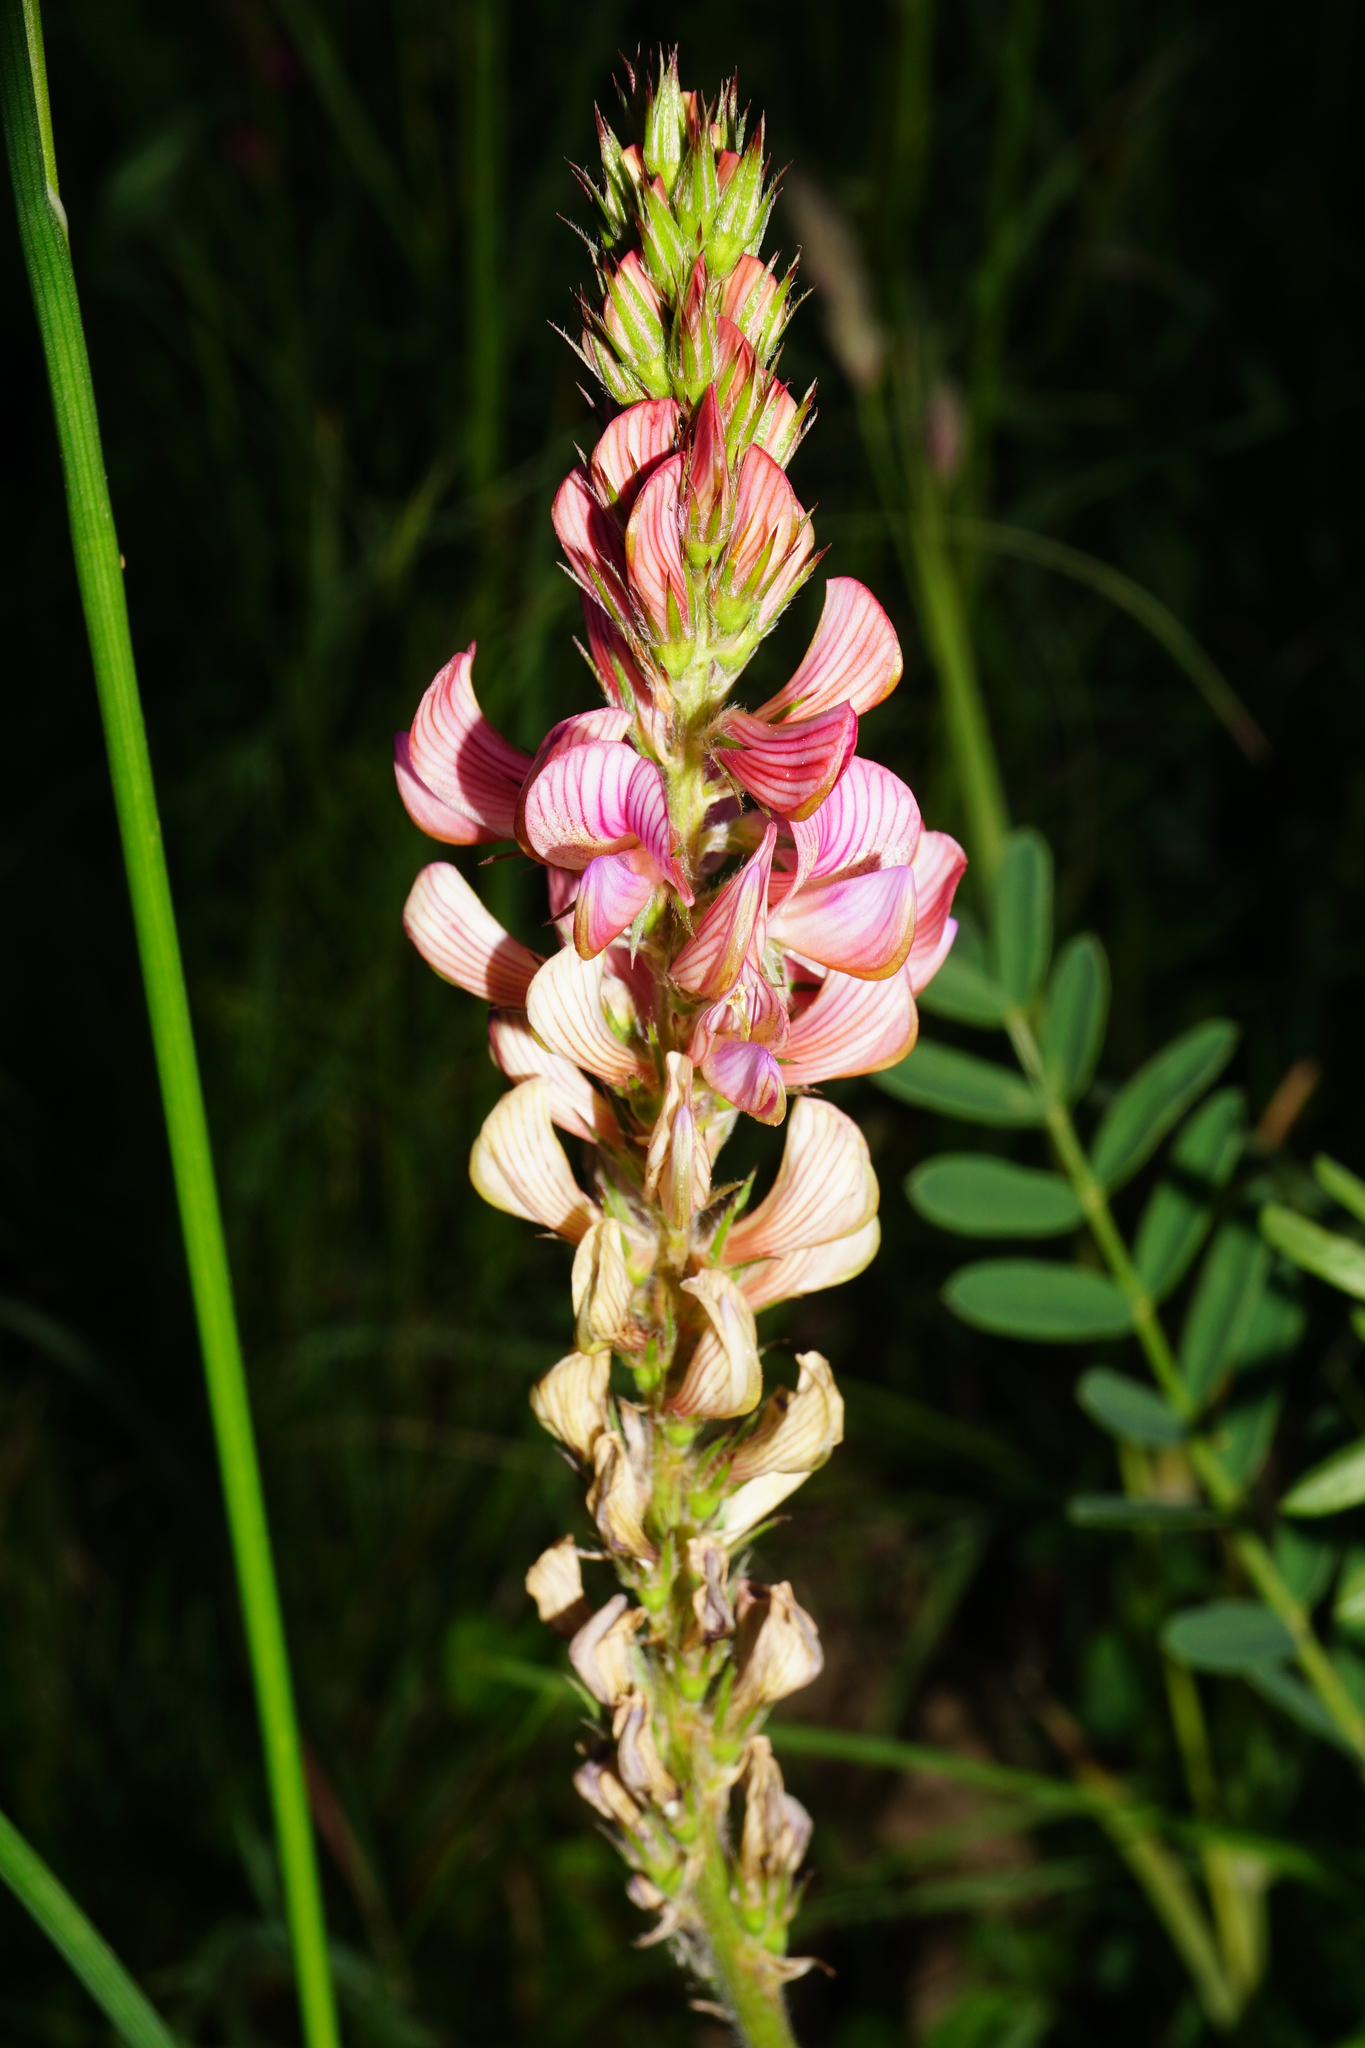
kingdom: Plantae
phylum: Tracheophyta
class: Magnoliopsida
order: Fabales
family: Fabaceae
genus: Onobrychis
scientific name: Onobrychis viciifolia
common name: Sainfoin
